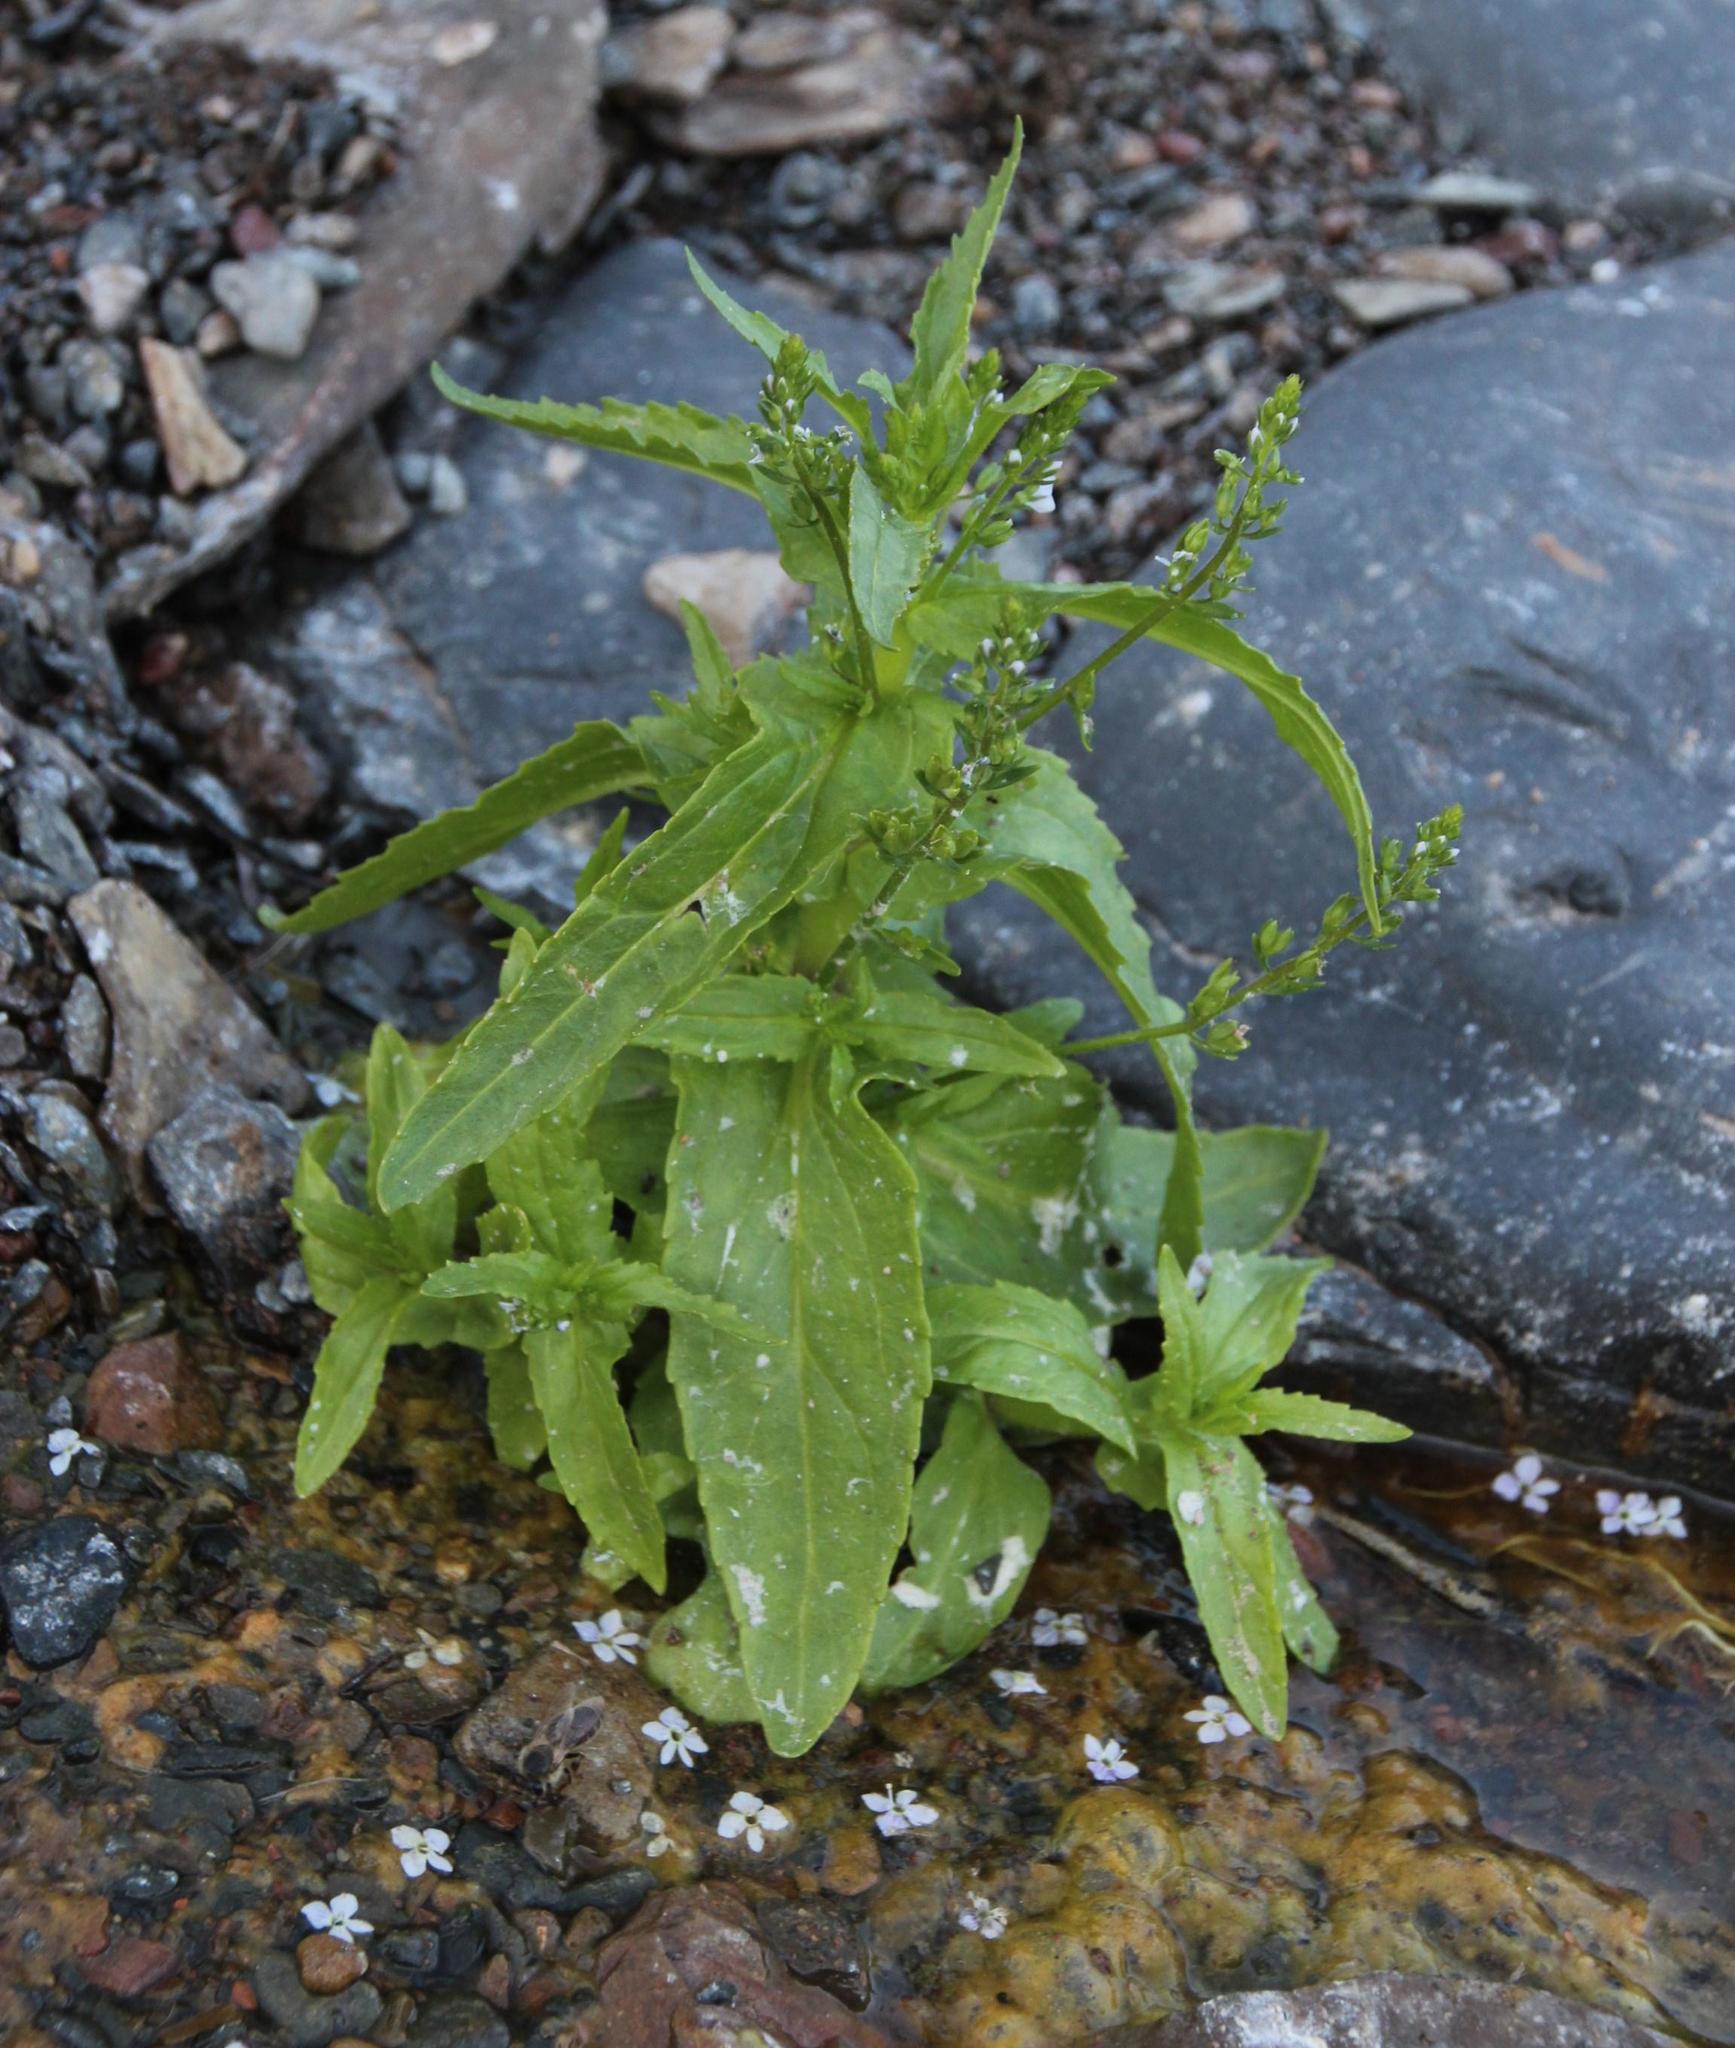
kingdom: Plantae
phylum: Tracheophyta
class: Magnoliopsida
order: Lamiales
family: Plantaginaceae
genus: Veronica
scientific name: Veronica anagallis-aquatica
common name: Water speedwell
